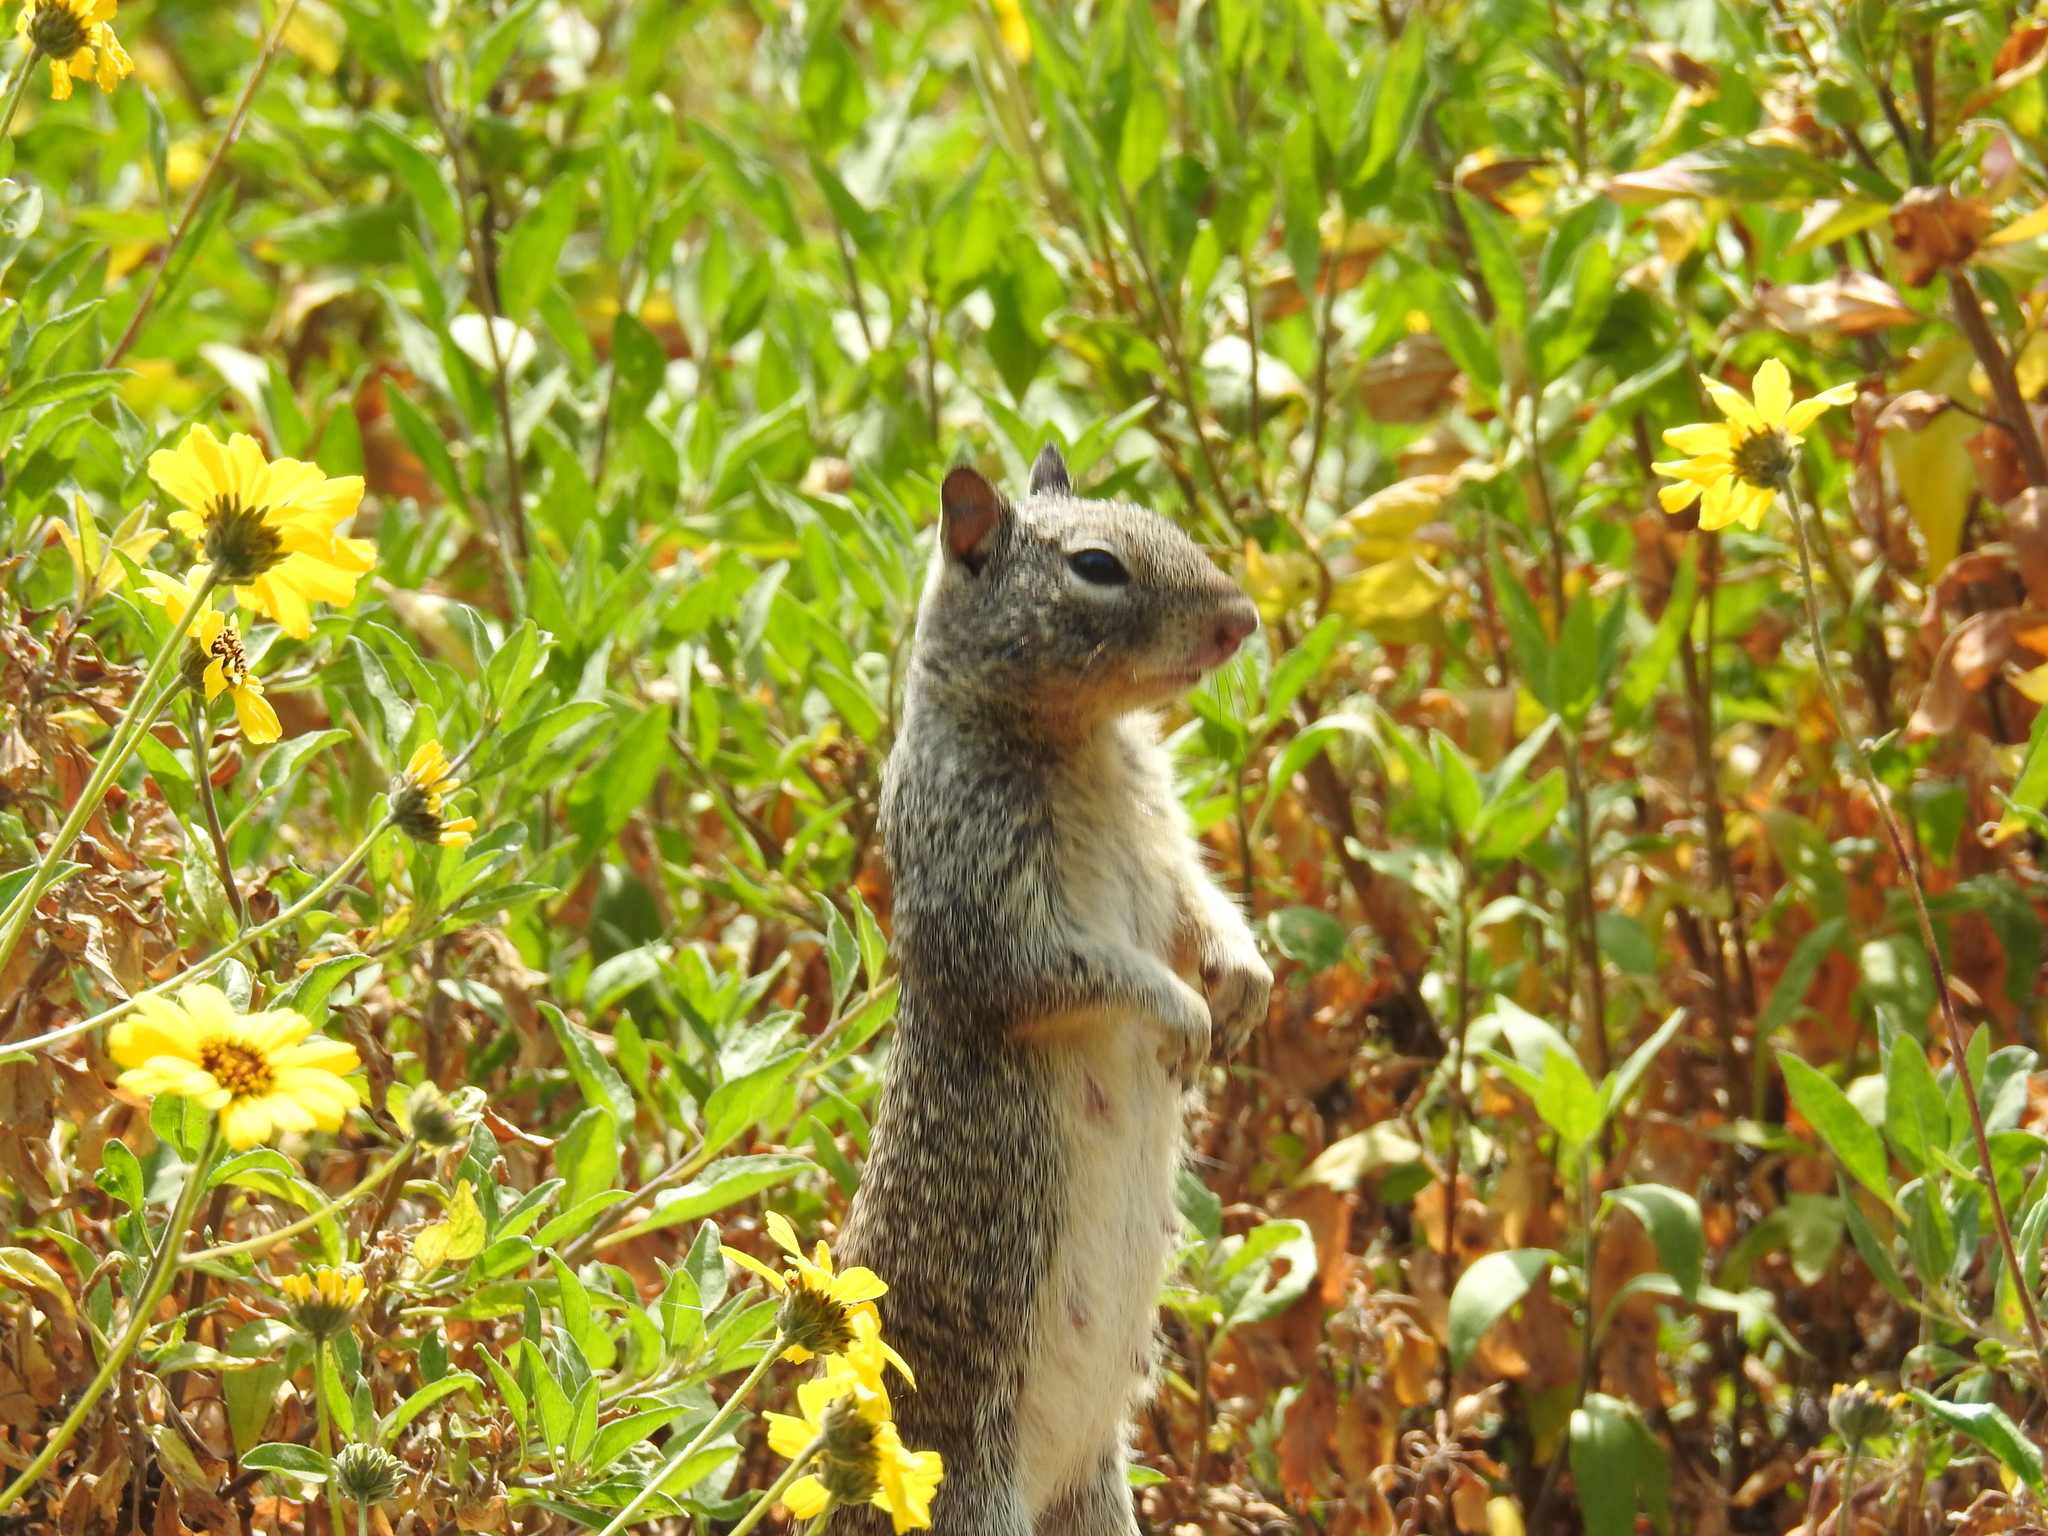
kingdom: Animalia
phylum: Chordata
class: Mammalia
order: Rodentia
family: Sciuridae
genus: Otospermophilus
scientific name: Otospermophilus beecheyi
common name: California ground squirrel
